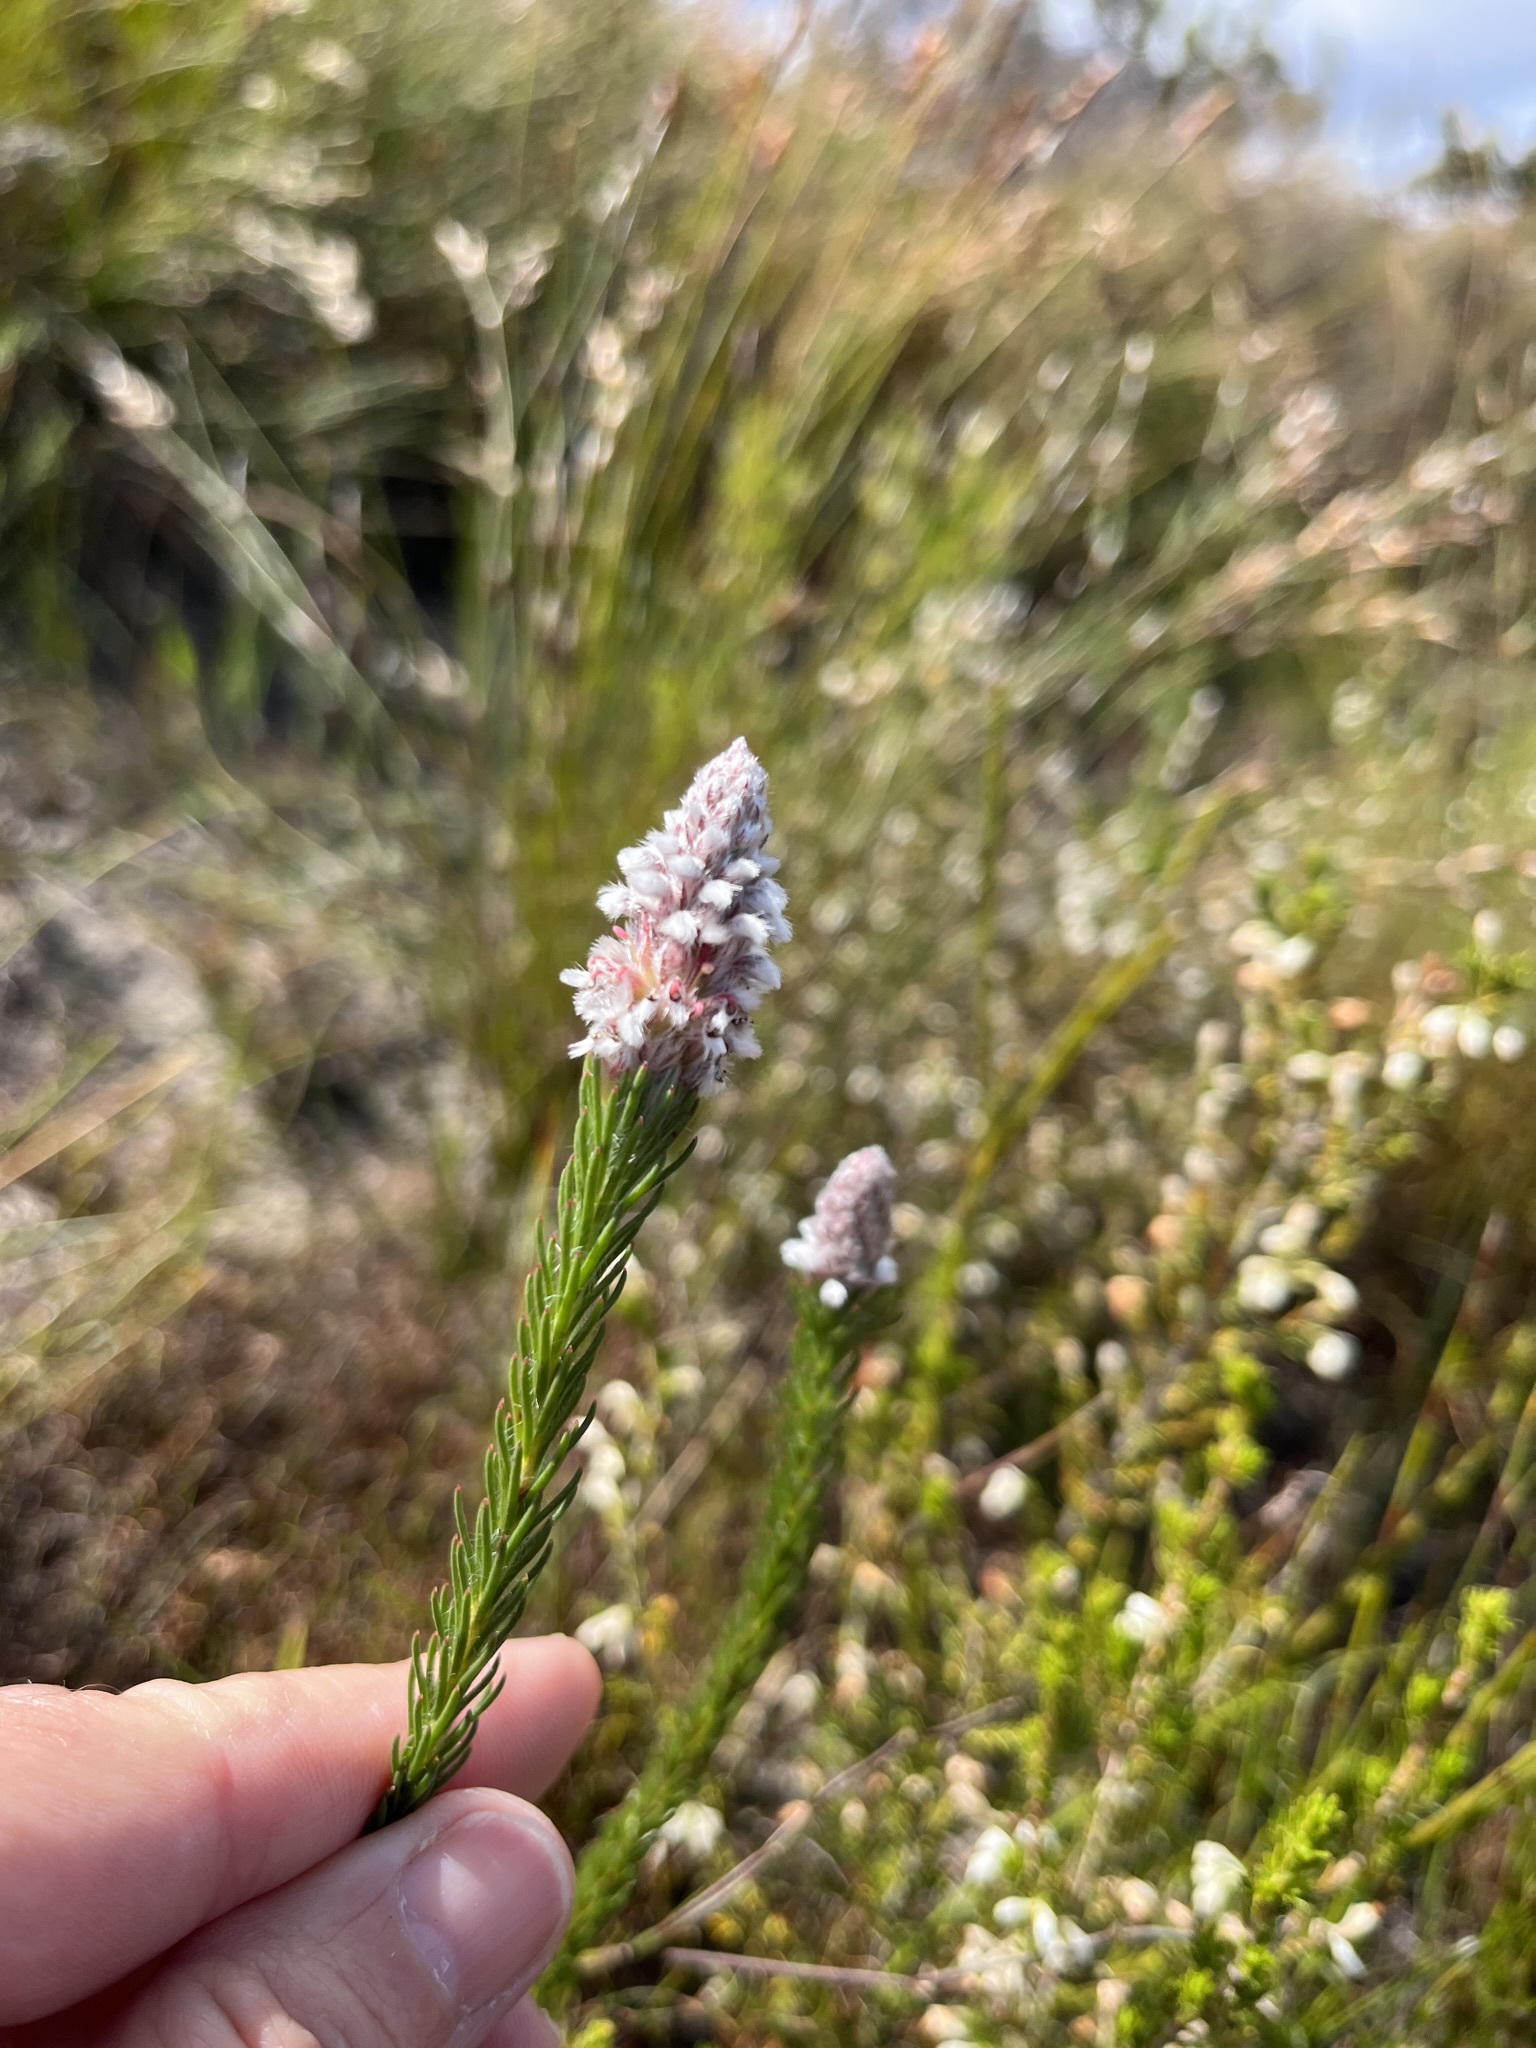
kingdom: Plantae
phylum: Tracheophyta
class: Magnoliopsida
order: Proteales
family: Proteaceae
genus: Spatalla
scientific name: Spatalla ericoides
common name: Erica-leaf spoon
